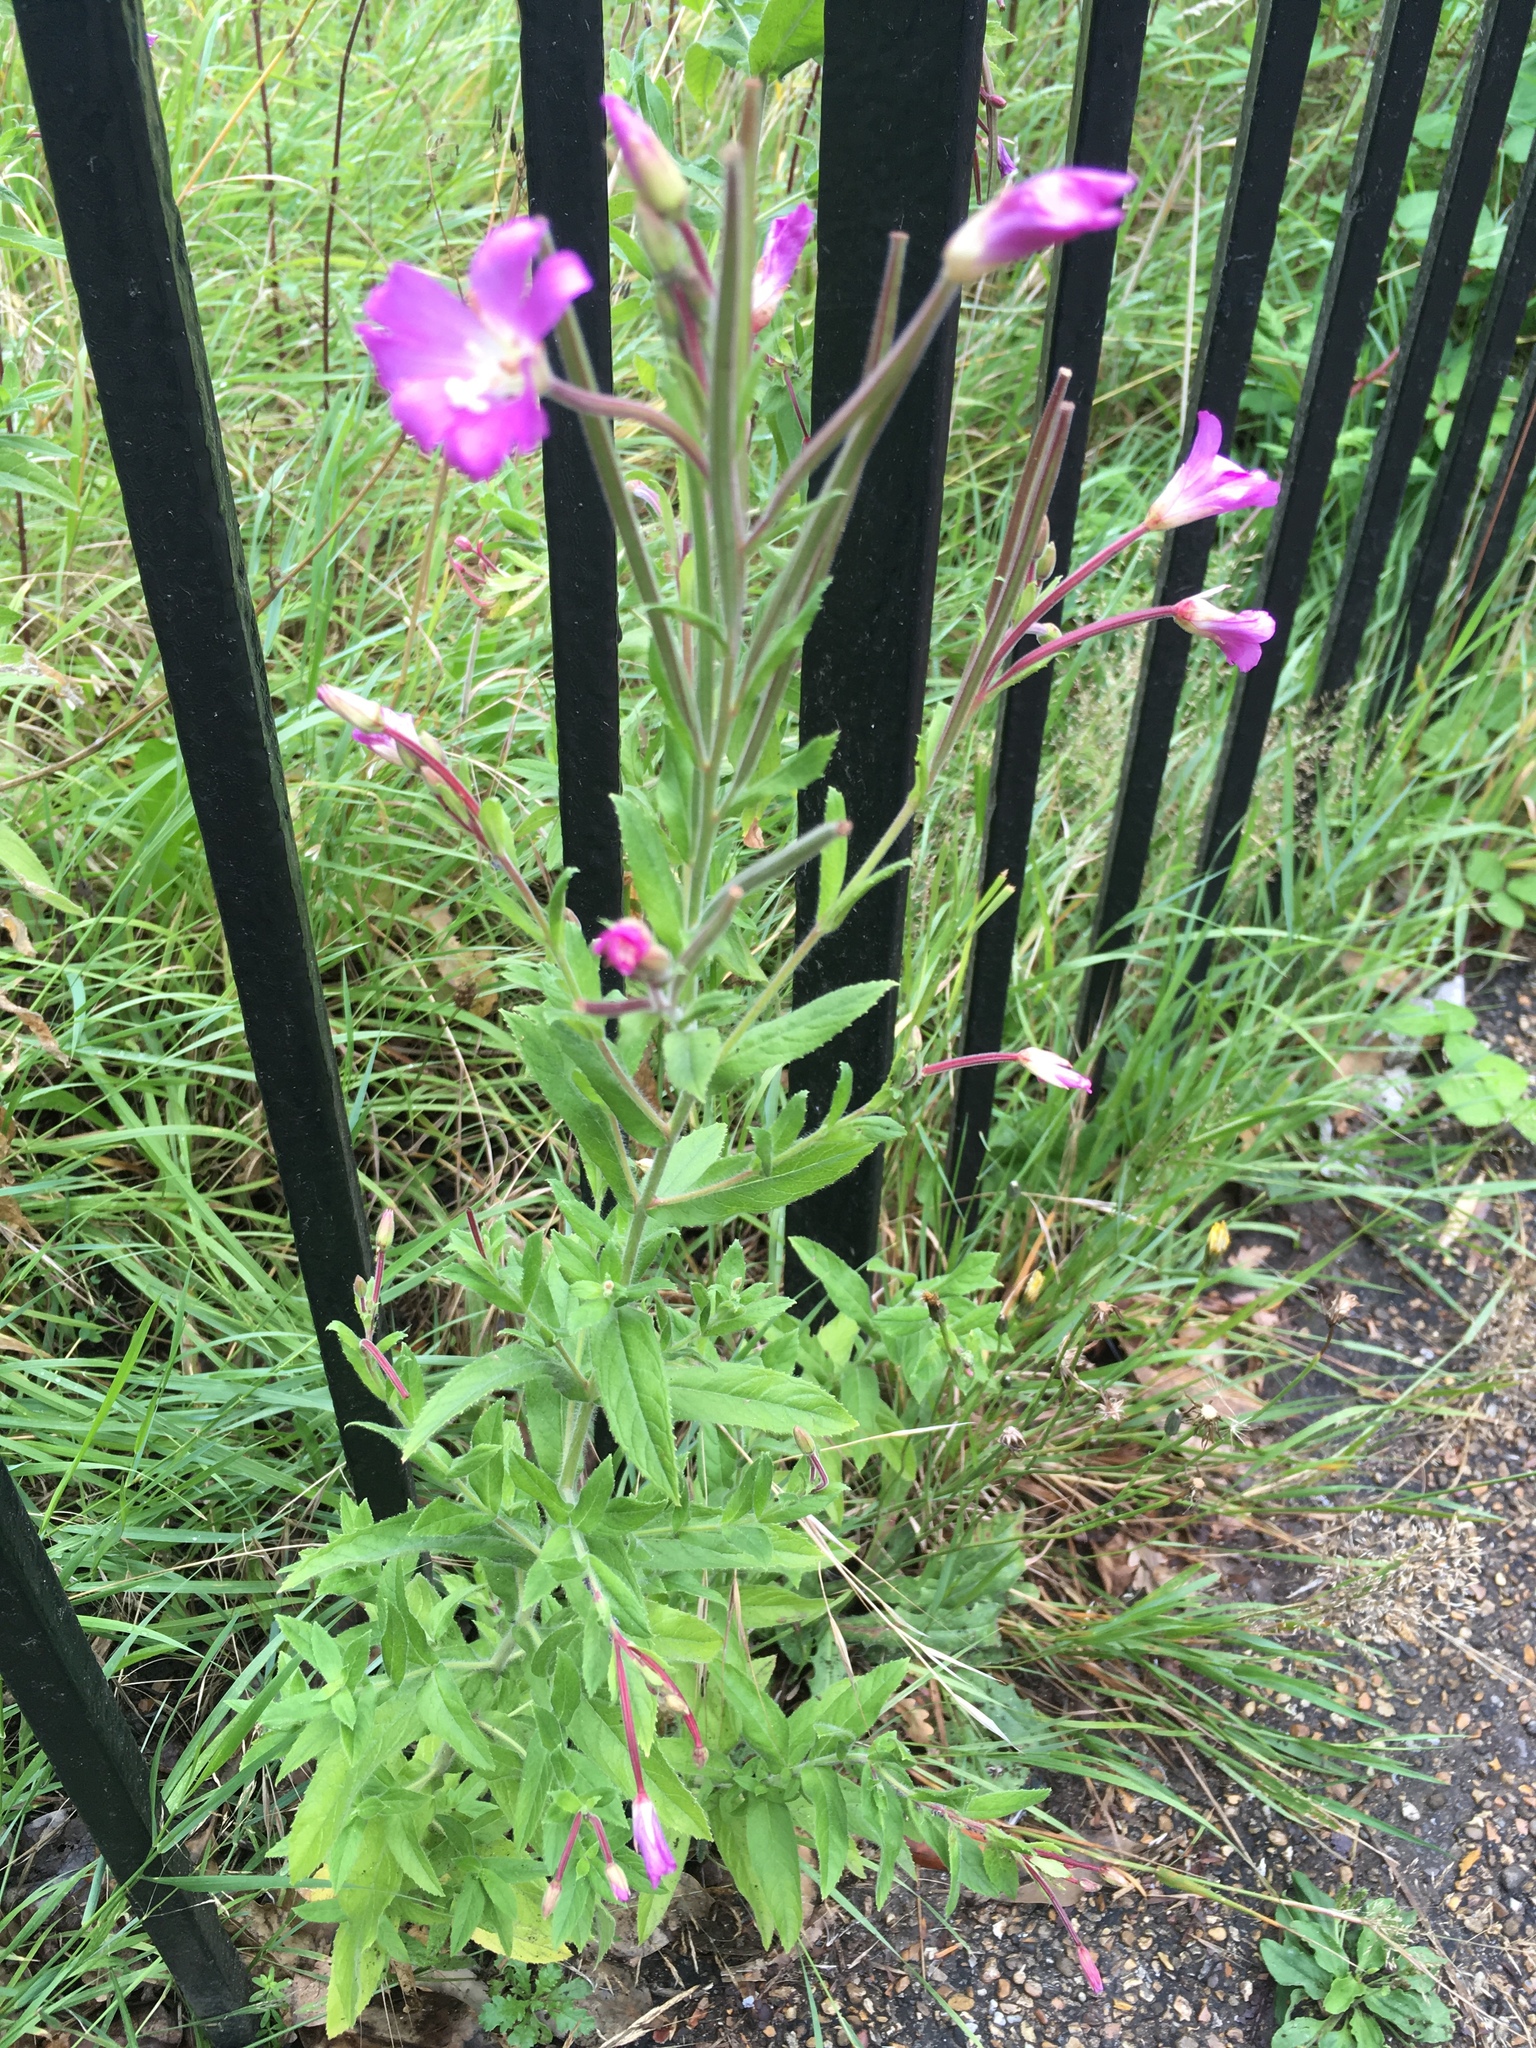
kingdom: Plantae
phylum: Tracheophyta
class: Magnoliopsida
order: Myrtales
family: Onagraceae
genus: Epilobium
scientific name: Epilobium hirsutum
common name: Great willowherb
